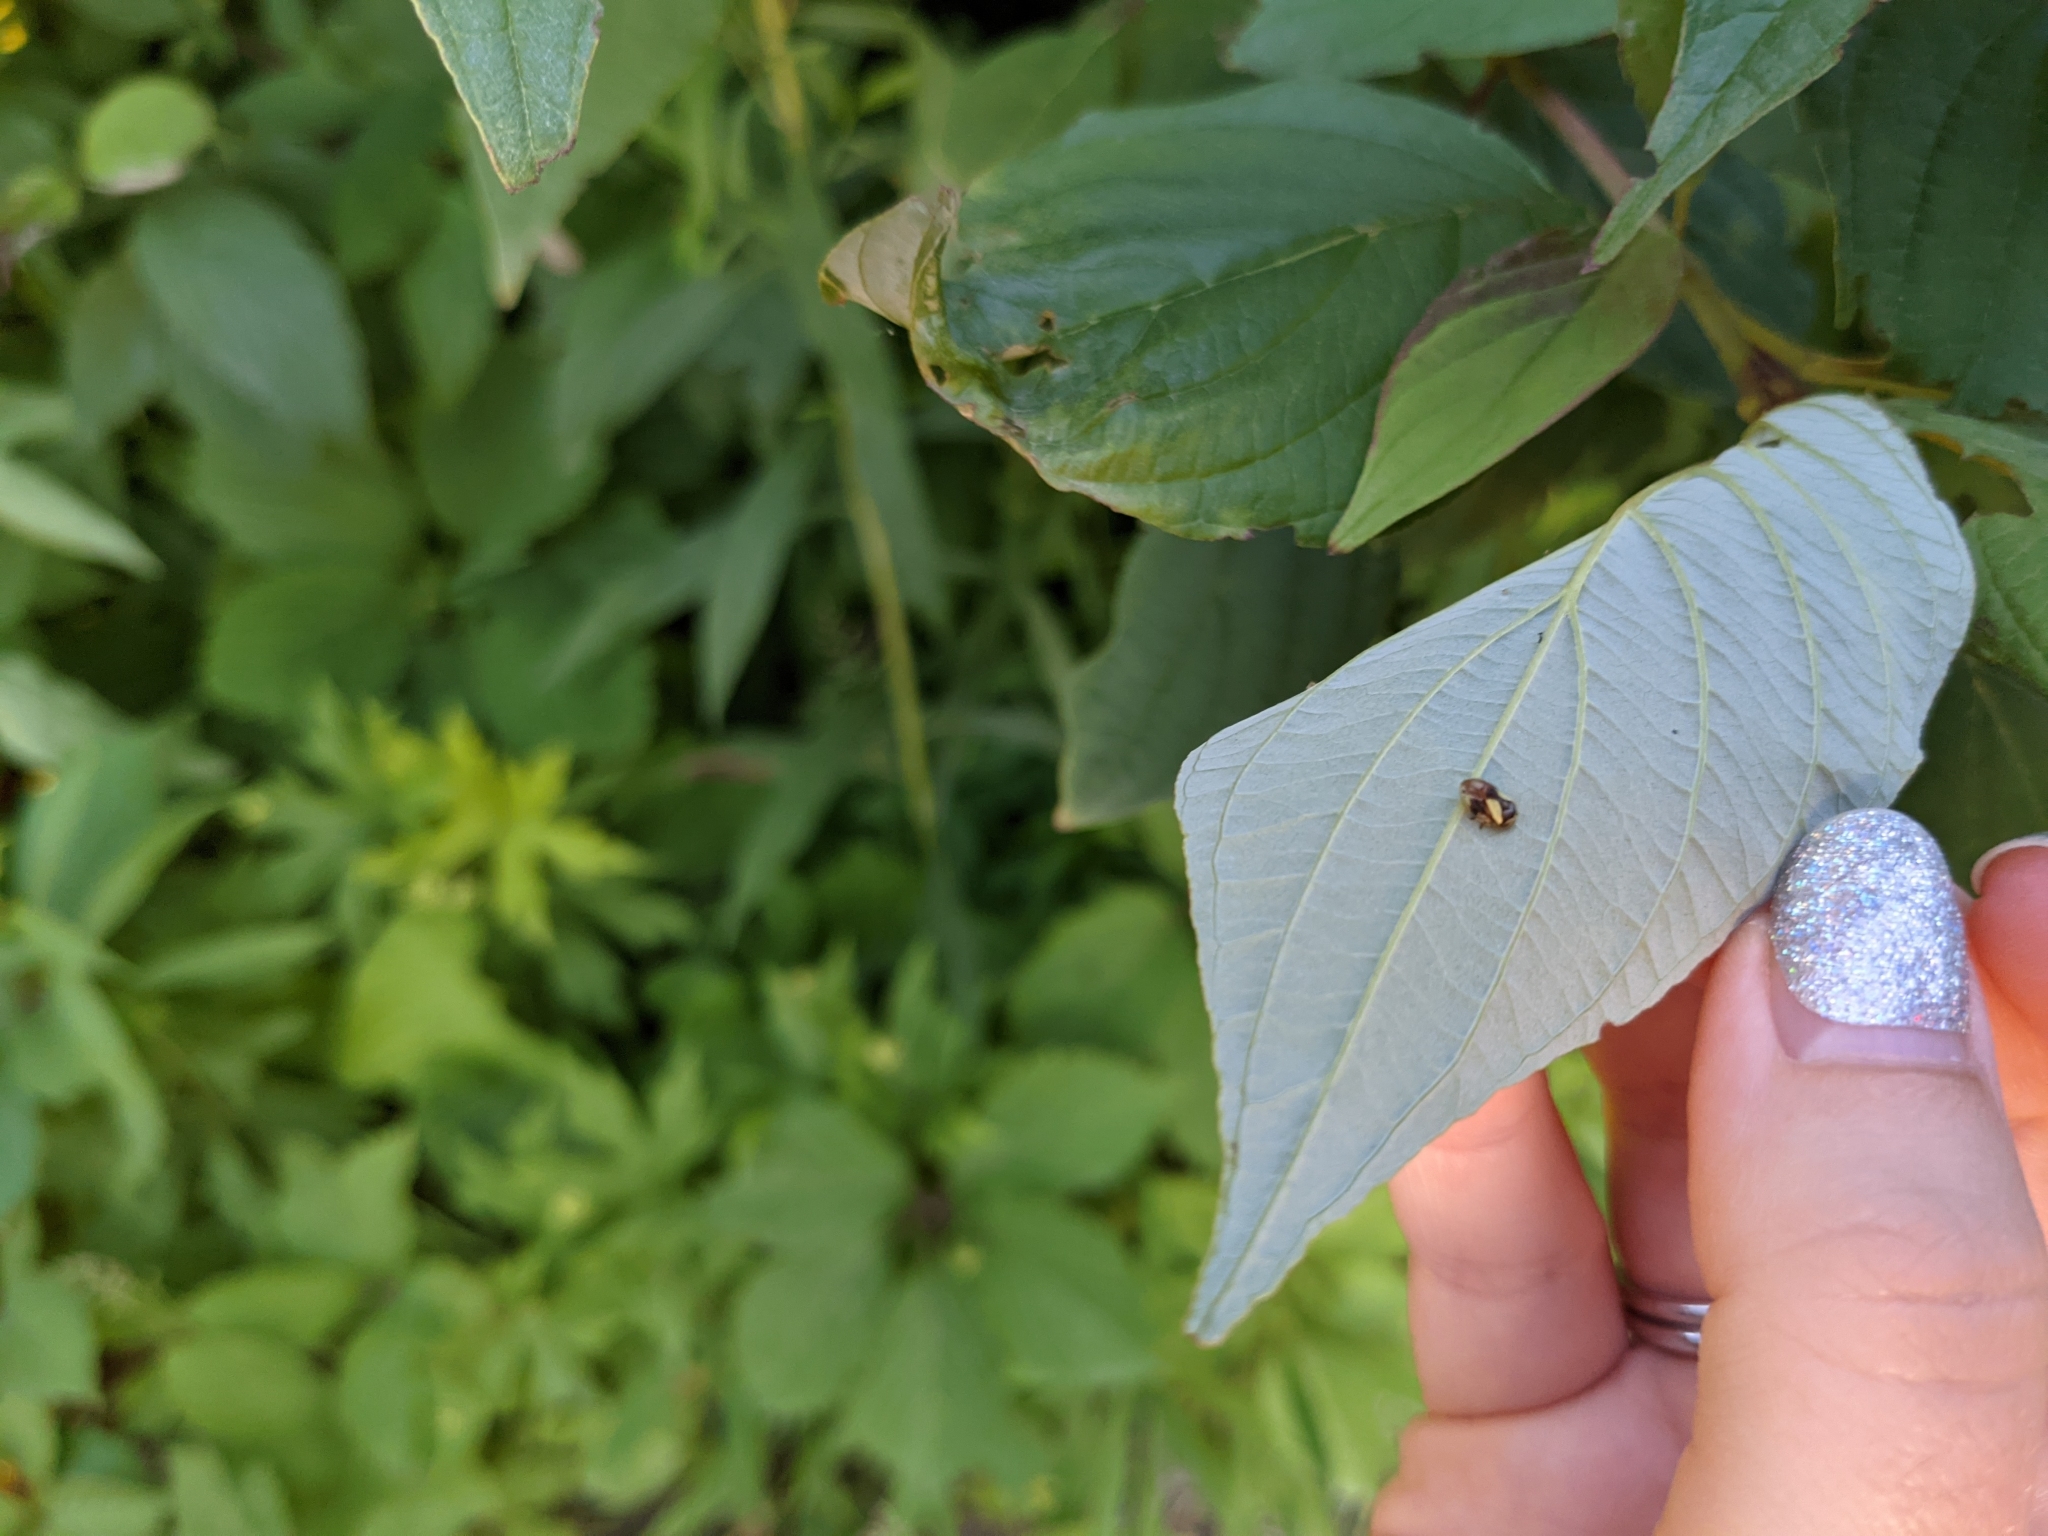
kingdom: Animalia
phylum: Arthropoda
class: Insecta
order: Hemiptera
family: Clastopteridae
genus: Clastoptera
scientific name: Clastoptera proteus
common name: Dogwood spittlebug
